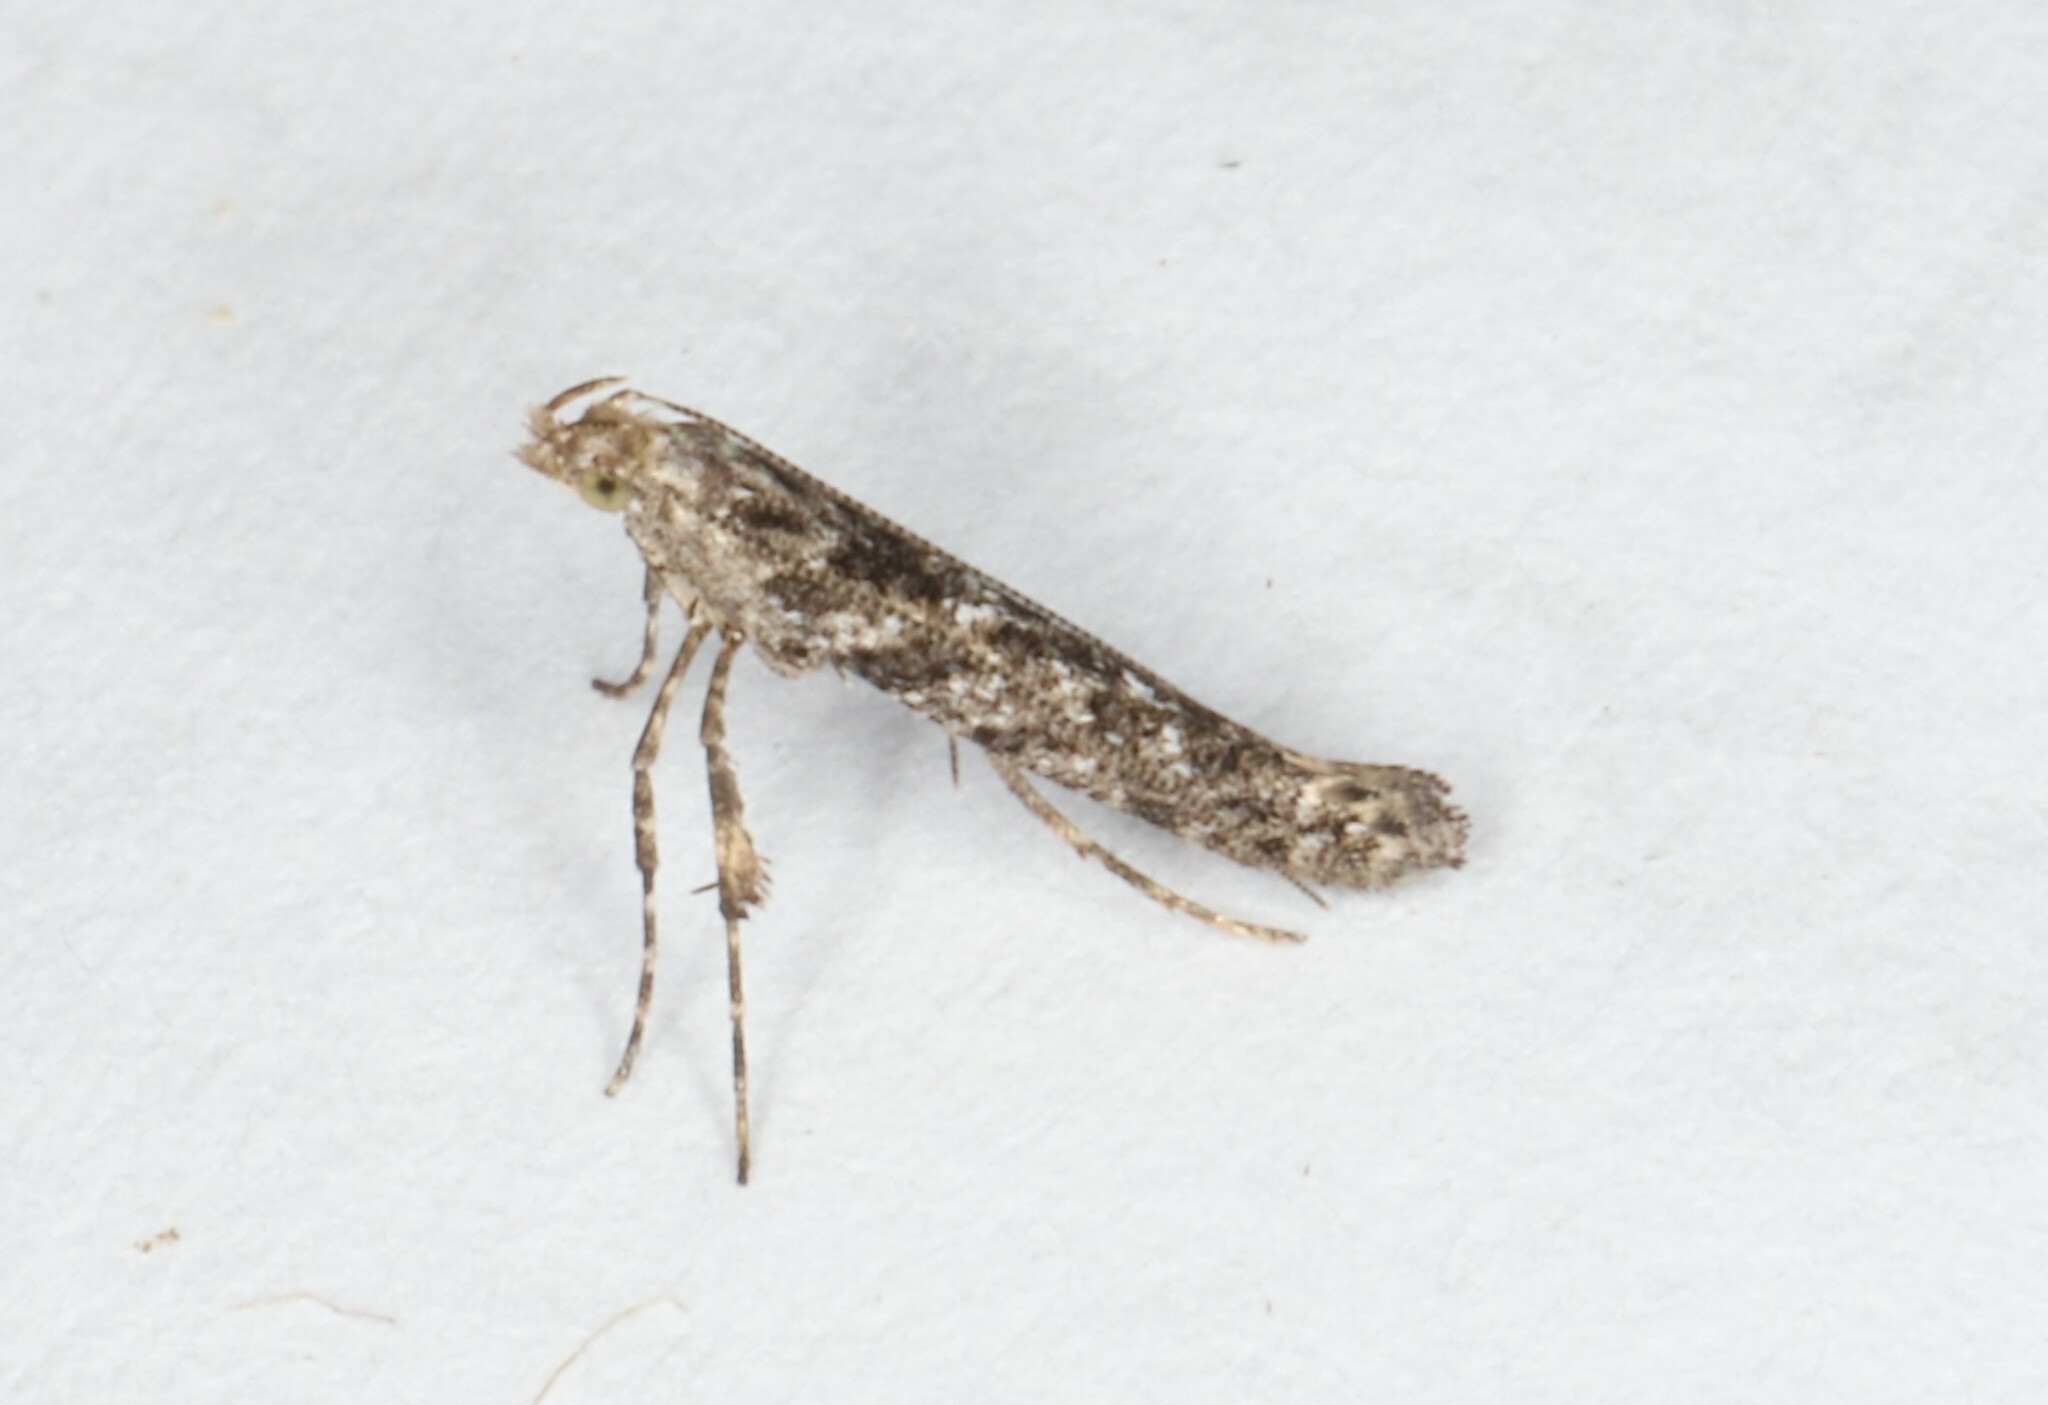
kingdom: Animalia
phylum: Arthropoda
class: Insecta
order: Lepidoptera
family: Gracillariidae
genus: Caloptilia
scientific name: Caloptilia fraxinella
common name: Ash leaf cone roller
